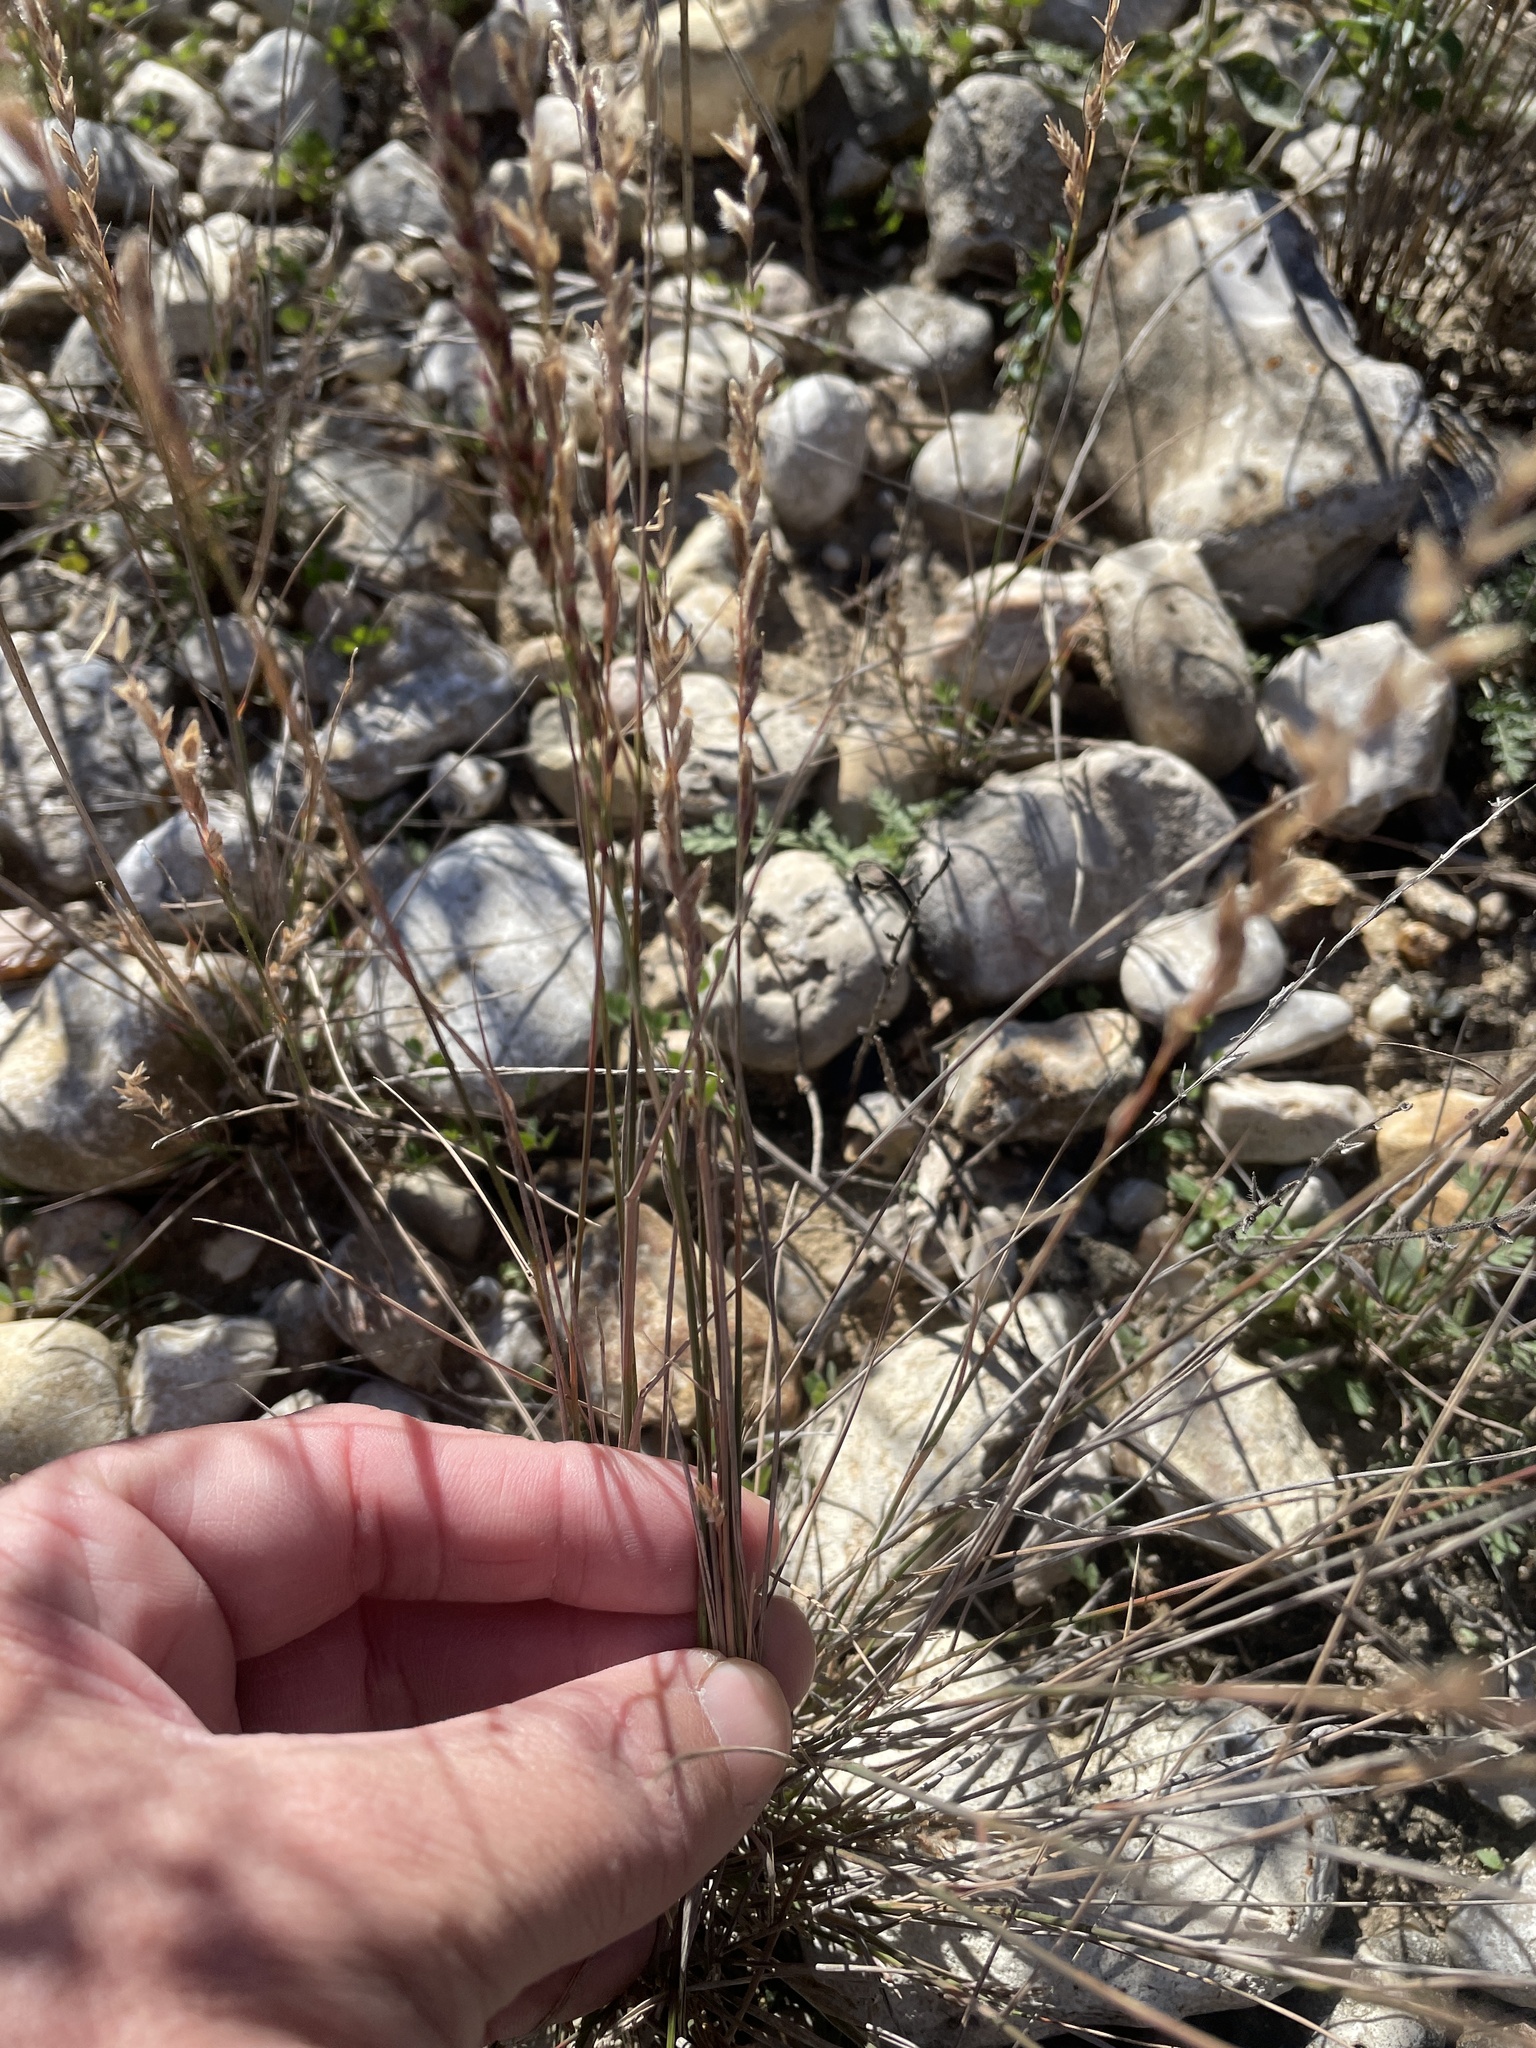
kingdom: Plantae
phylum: Tracheophyta
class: Liliopsida
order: Poales
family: Poaceae
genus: Pappophorum
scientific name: Pappophorum bicolor
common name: Pink pappus grass
